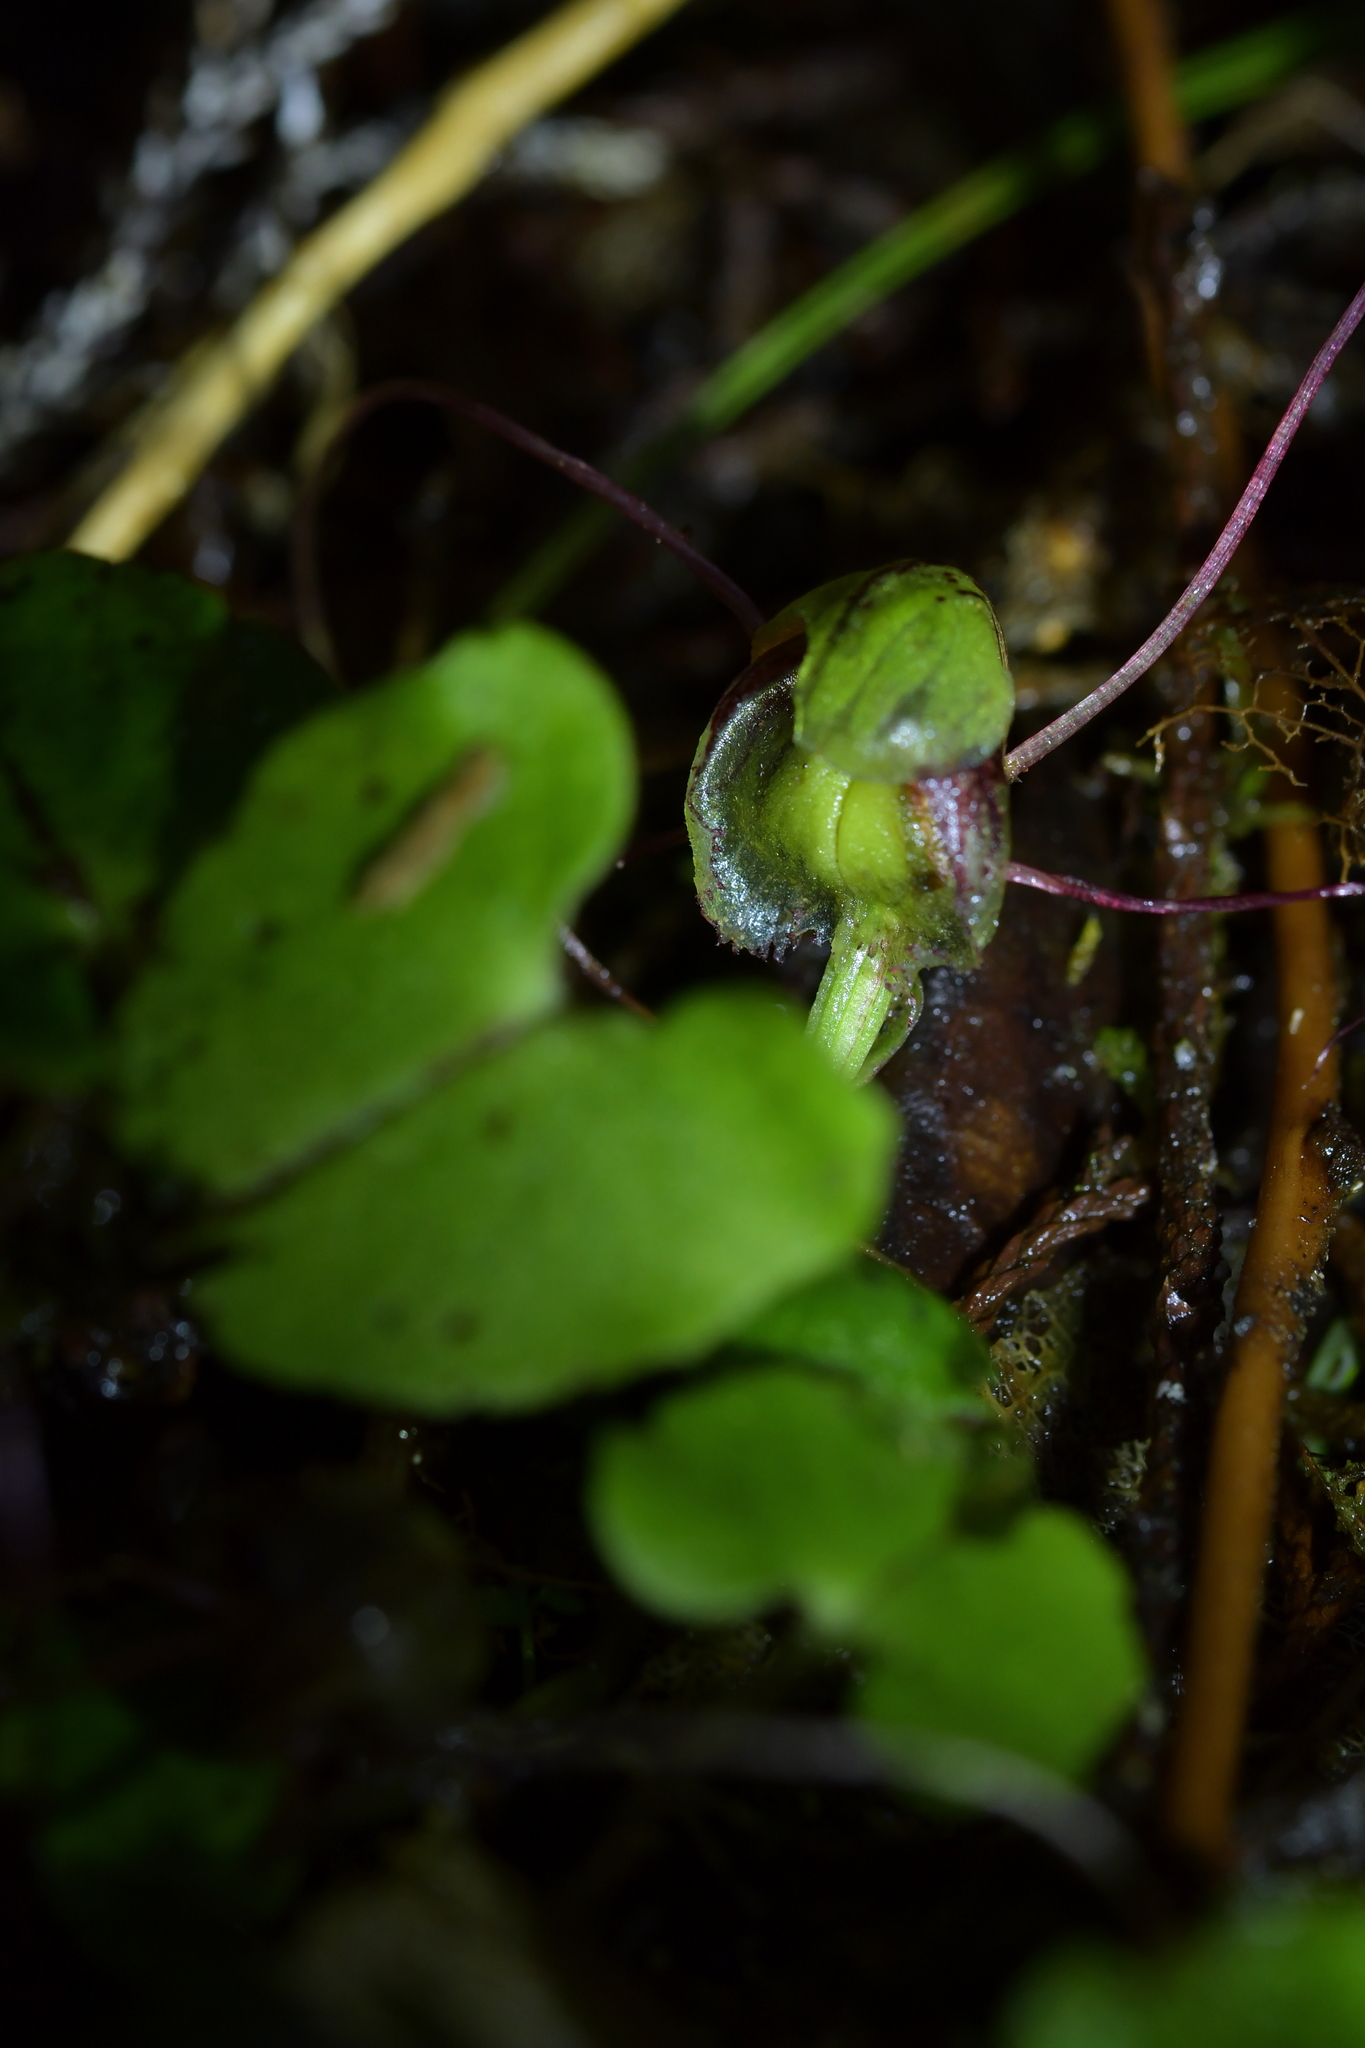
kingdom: Plantae
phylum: Tracheophyta
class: Liliopsida
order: Asparagales
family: Orchidaceae
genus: Corybas
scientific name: Corybas vitreus
